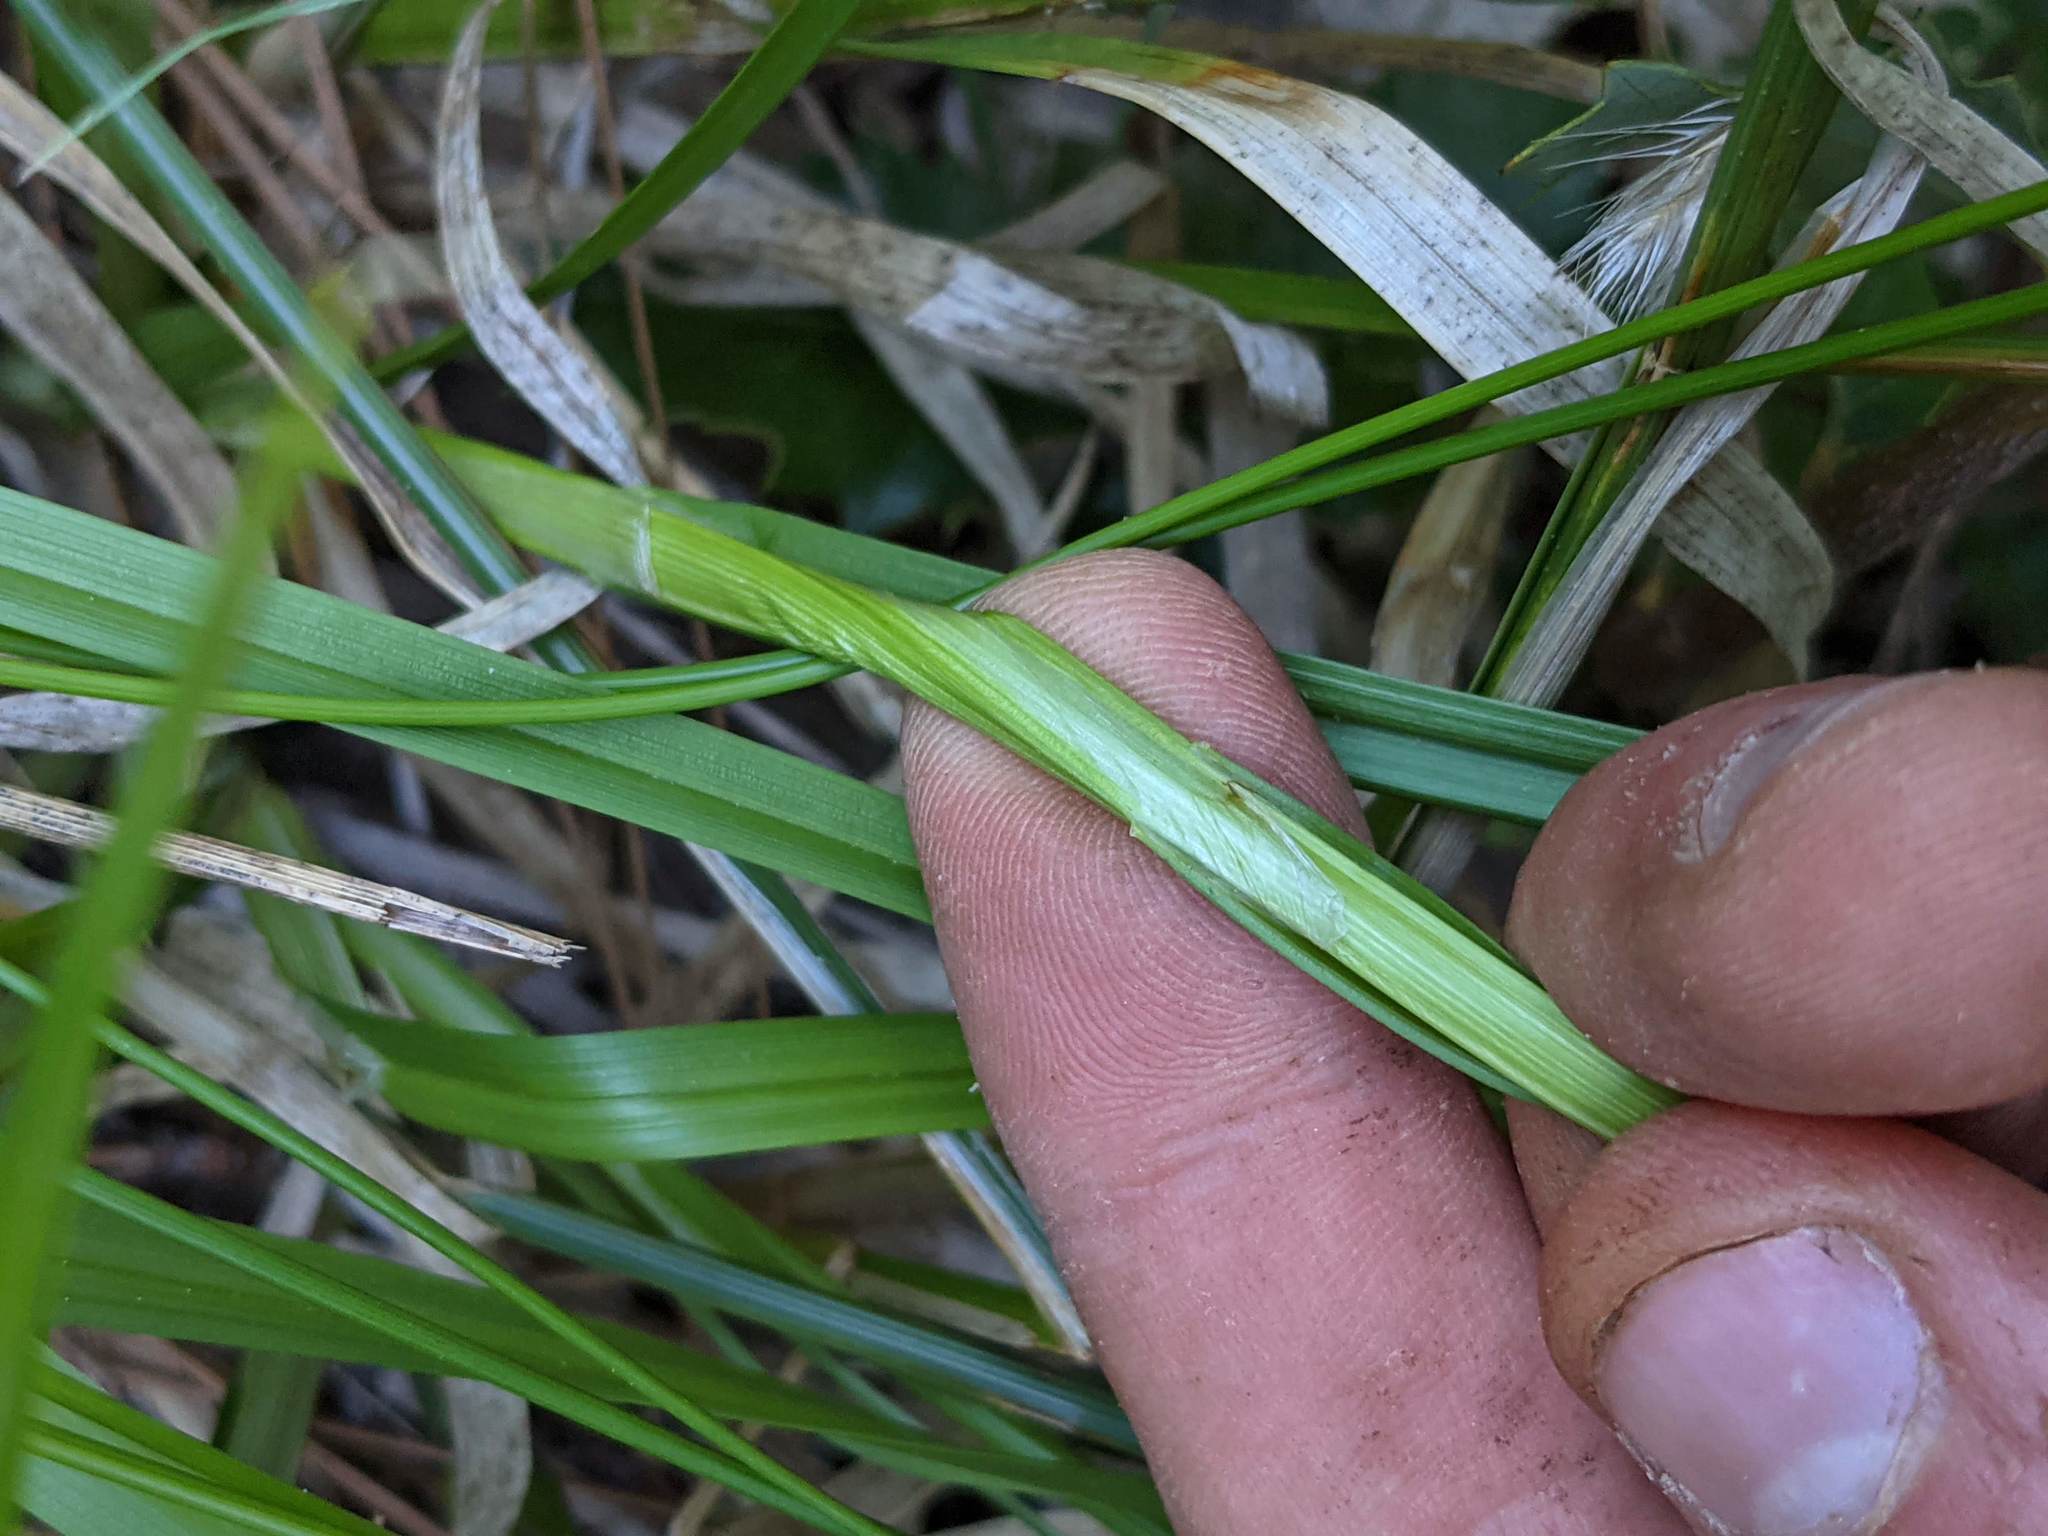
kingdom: Plantae
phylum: Tracheophyta
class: Liliopsida
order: Poales
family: Cyperaceae
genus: Carex
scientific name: Carex fracta
